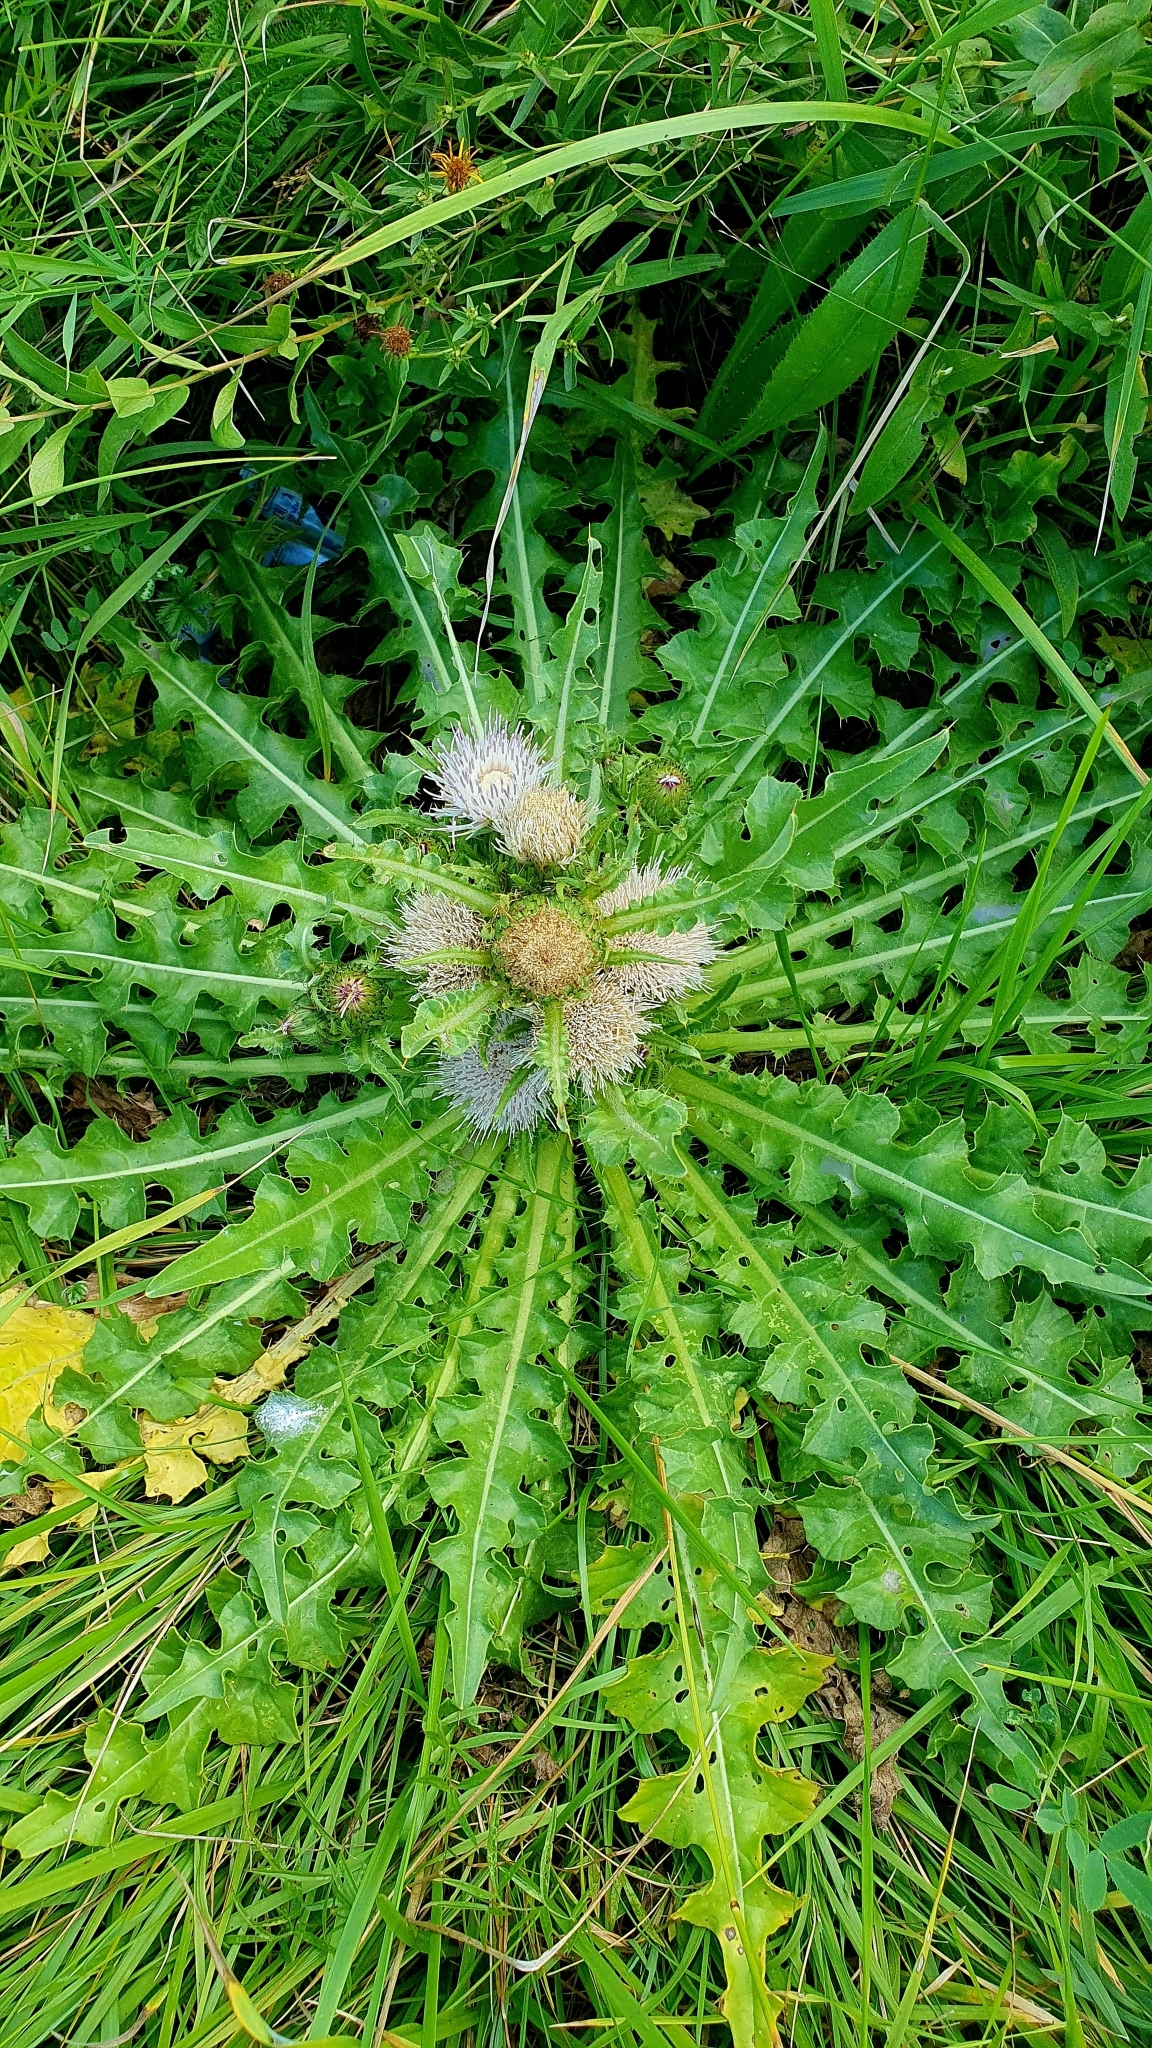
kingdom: Plantae
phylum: Tracheophyta
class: Magnoliopsida
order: Asterales
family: Asteraceae
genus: Cirsium
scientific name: Cirsium esculentum
